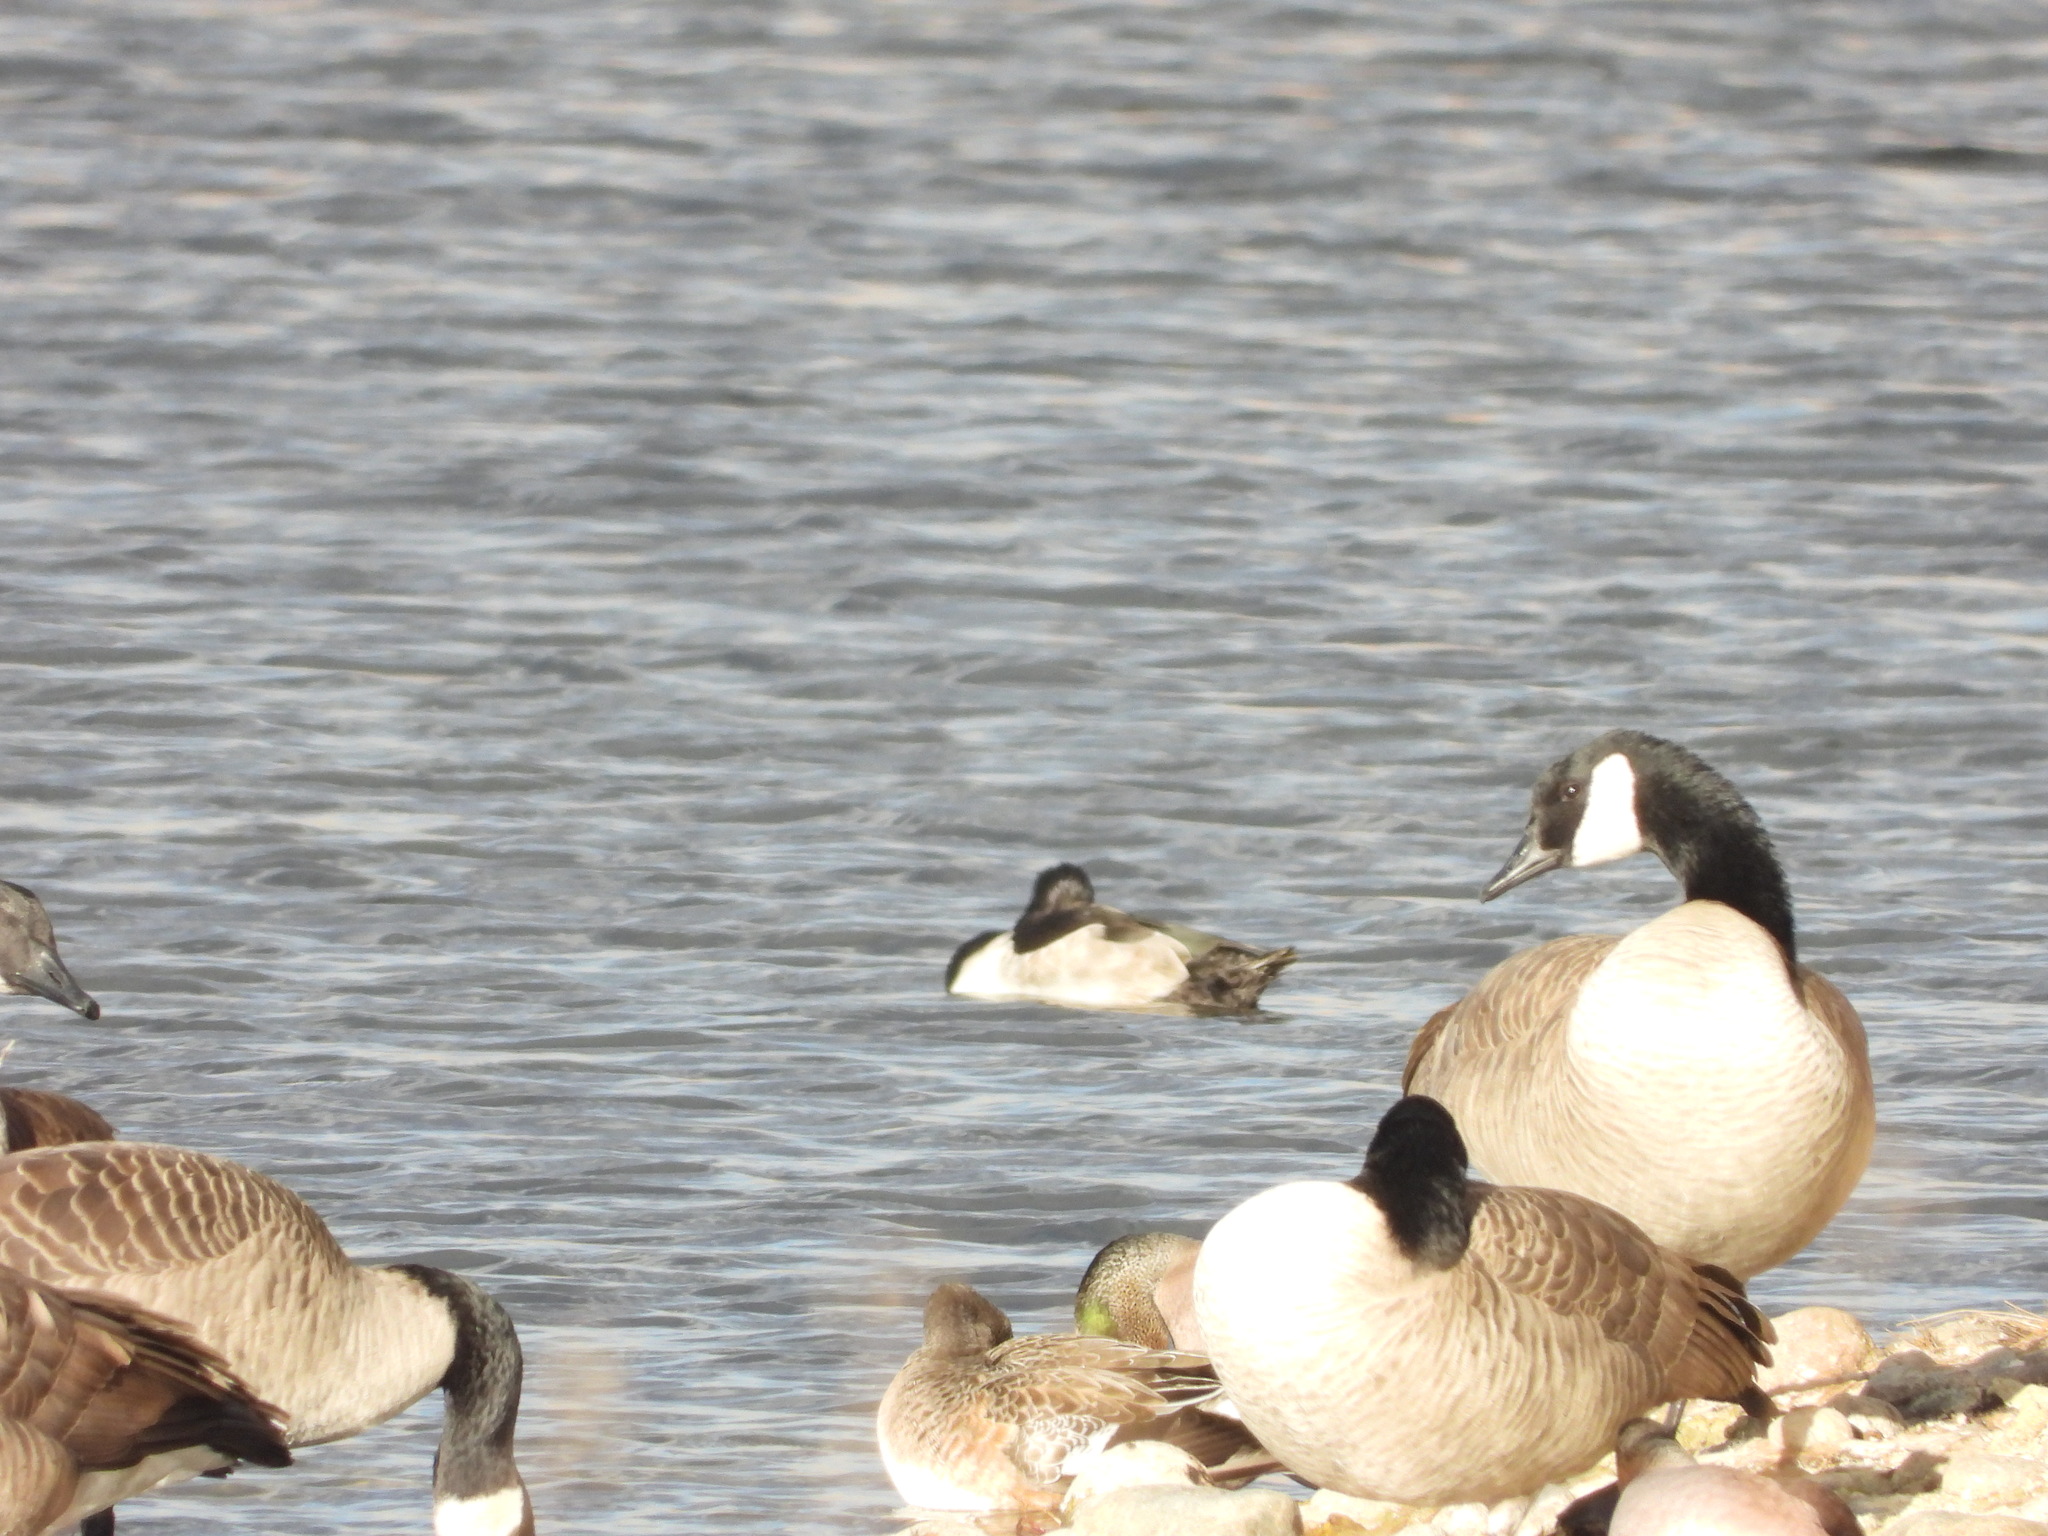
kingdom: Animalia
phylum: Chordata
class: Aves
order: Anseriformes
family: Anatidae
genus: Aythya
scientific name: Aythya collaris
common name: Ring-necked duck
